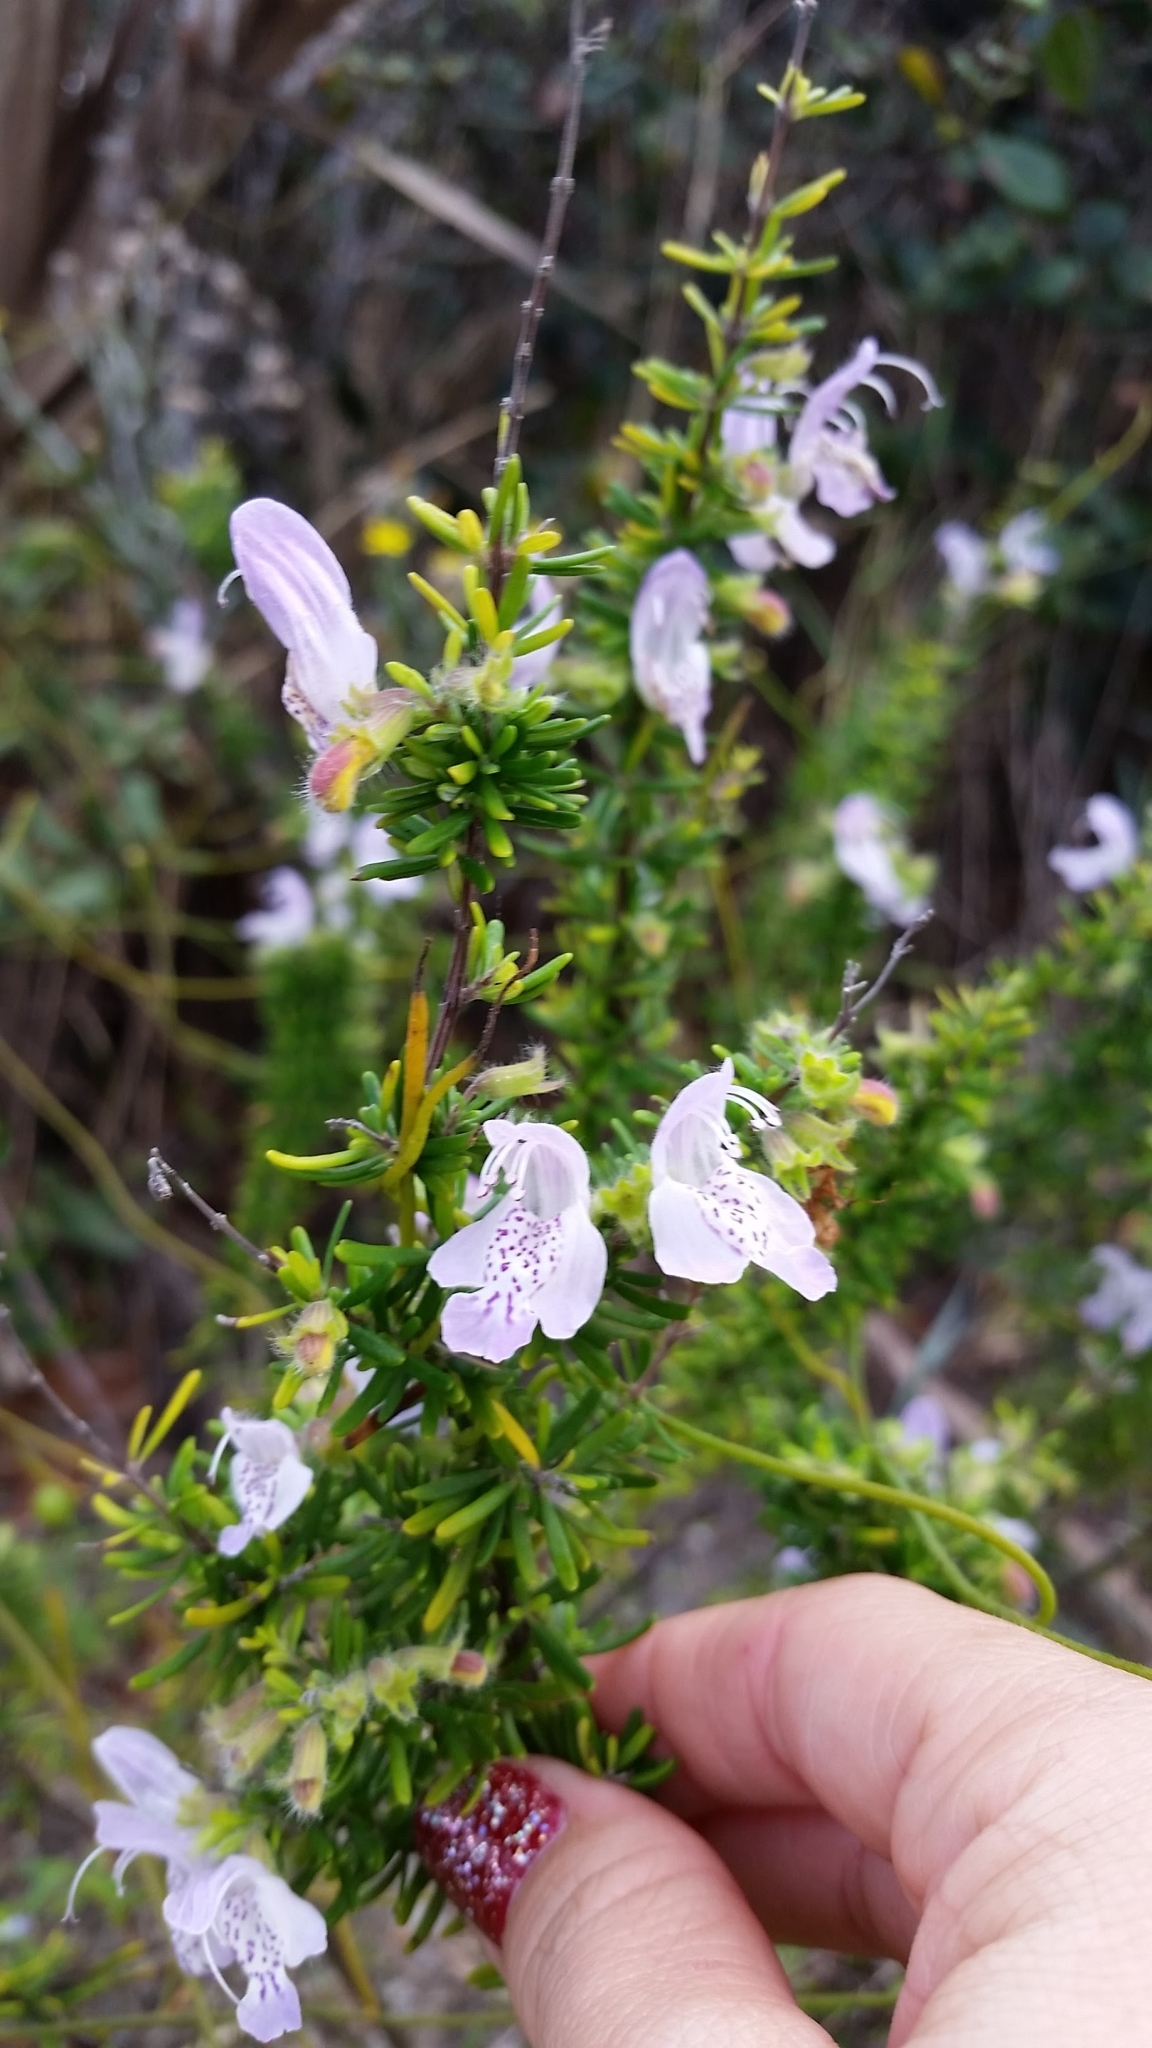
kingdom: Plantae
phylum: Tracheophyta
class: Magnoliopsida
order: Lamiales
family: Lamiaceae
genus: Conradina
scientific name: Conradina grandiflora
